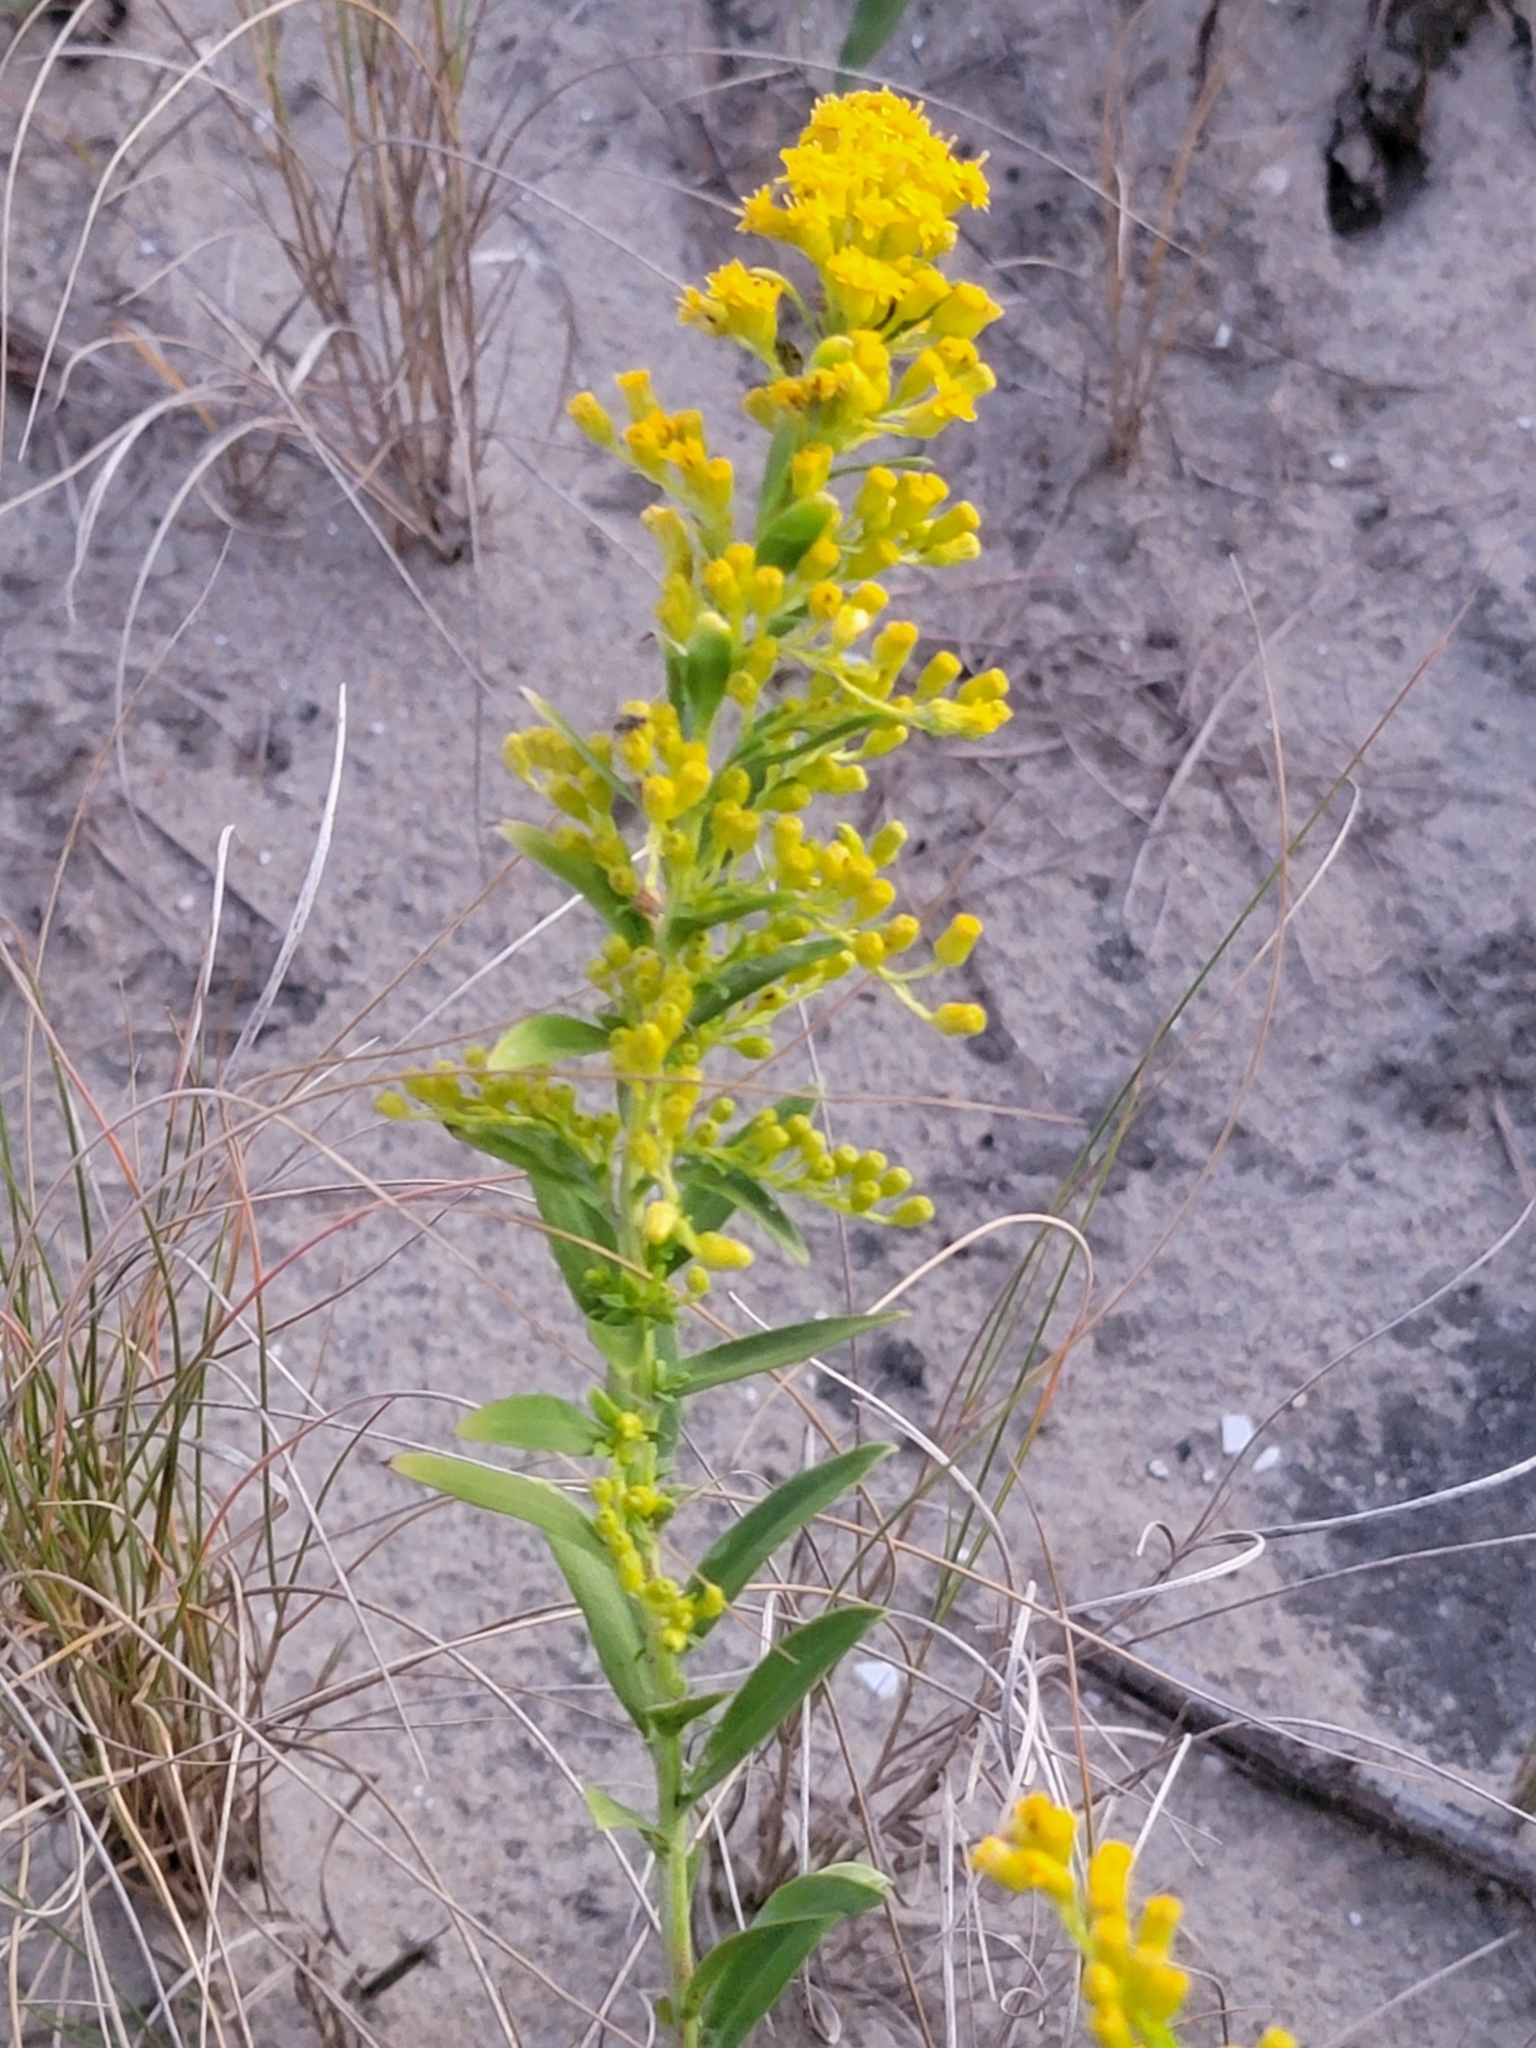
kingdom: Plantae
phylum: Tracheophyta
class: Magnoliopsida
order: Asterales
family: Asteraceae
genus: Solidago
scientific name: Solidago sempervirens
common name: Salt-marsh goldenrod
